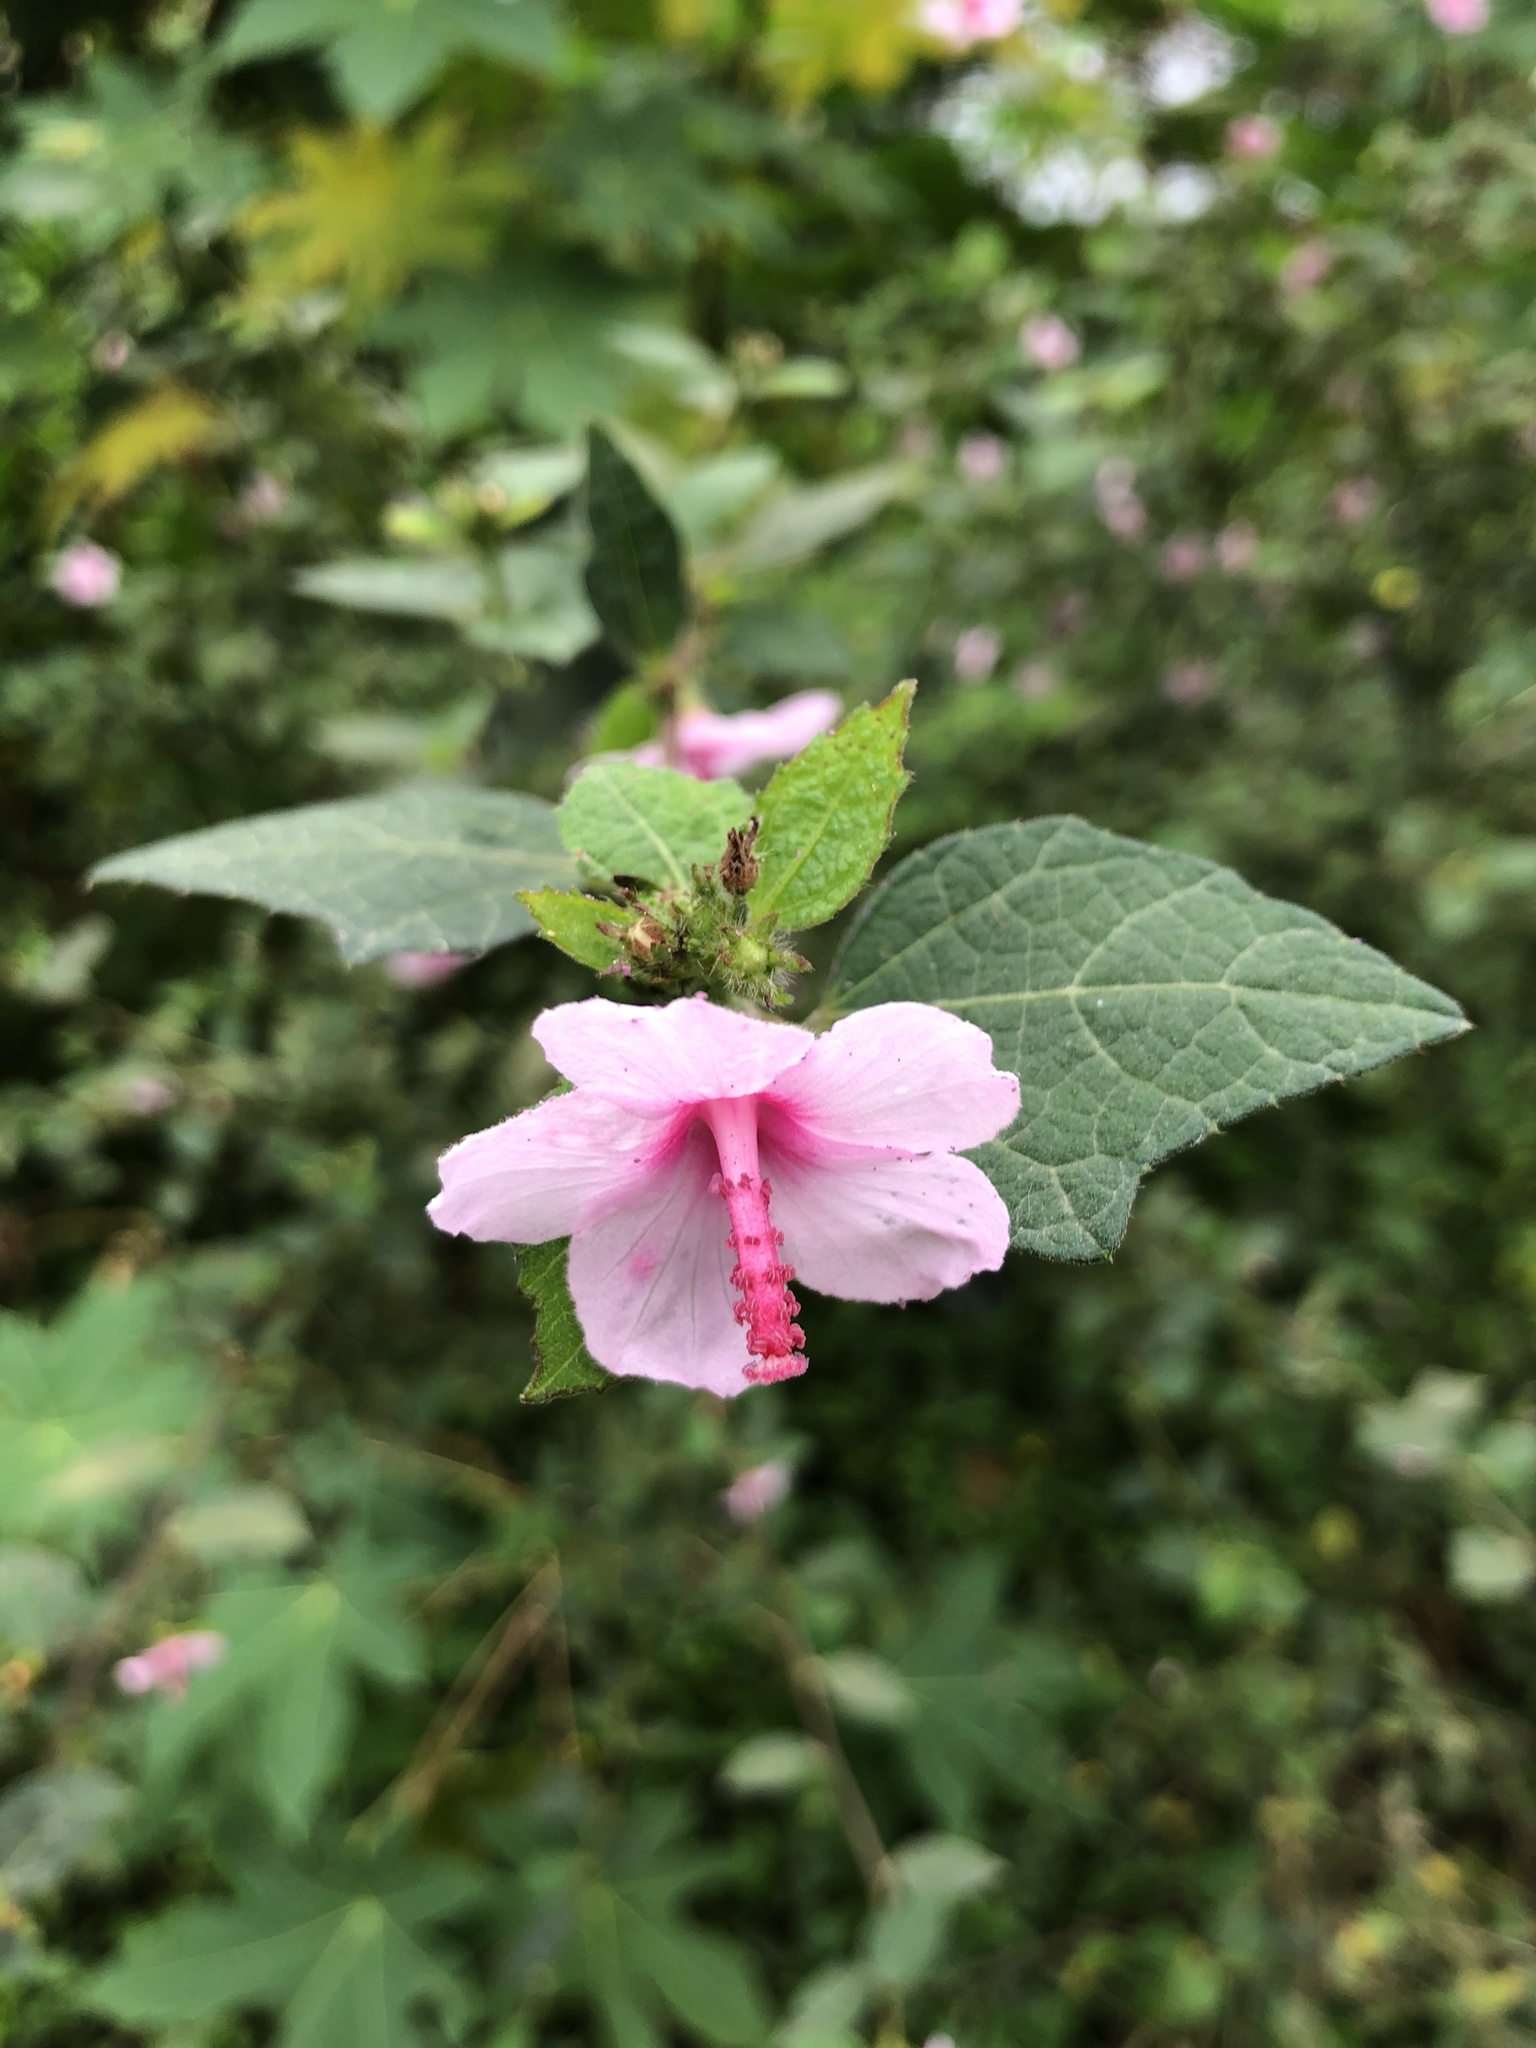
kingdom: Plantae
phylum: Tracheophyta
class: Magnoliopsida
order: Malvales
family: Malvaceae
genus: Urena
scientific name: Urena lobata
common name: Caesarweed
